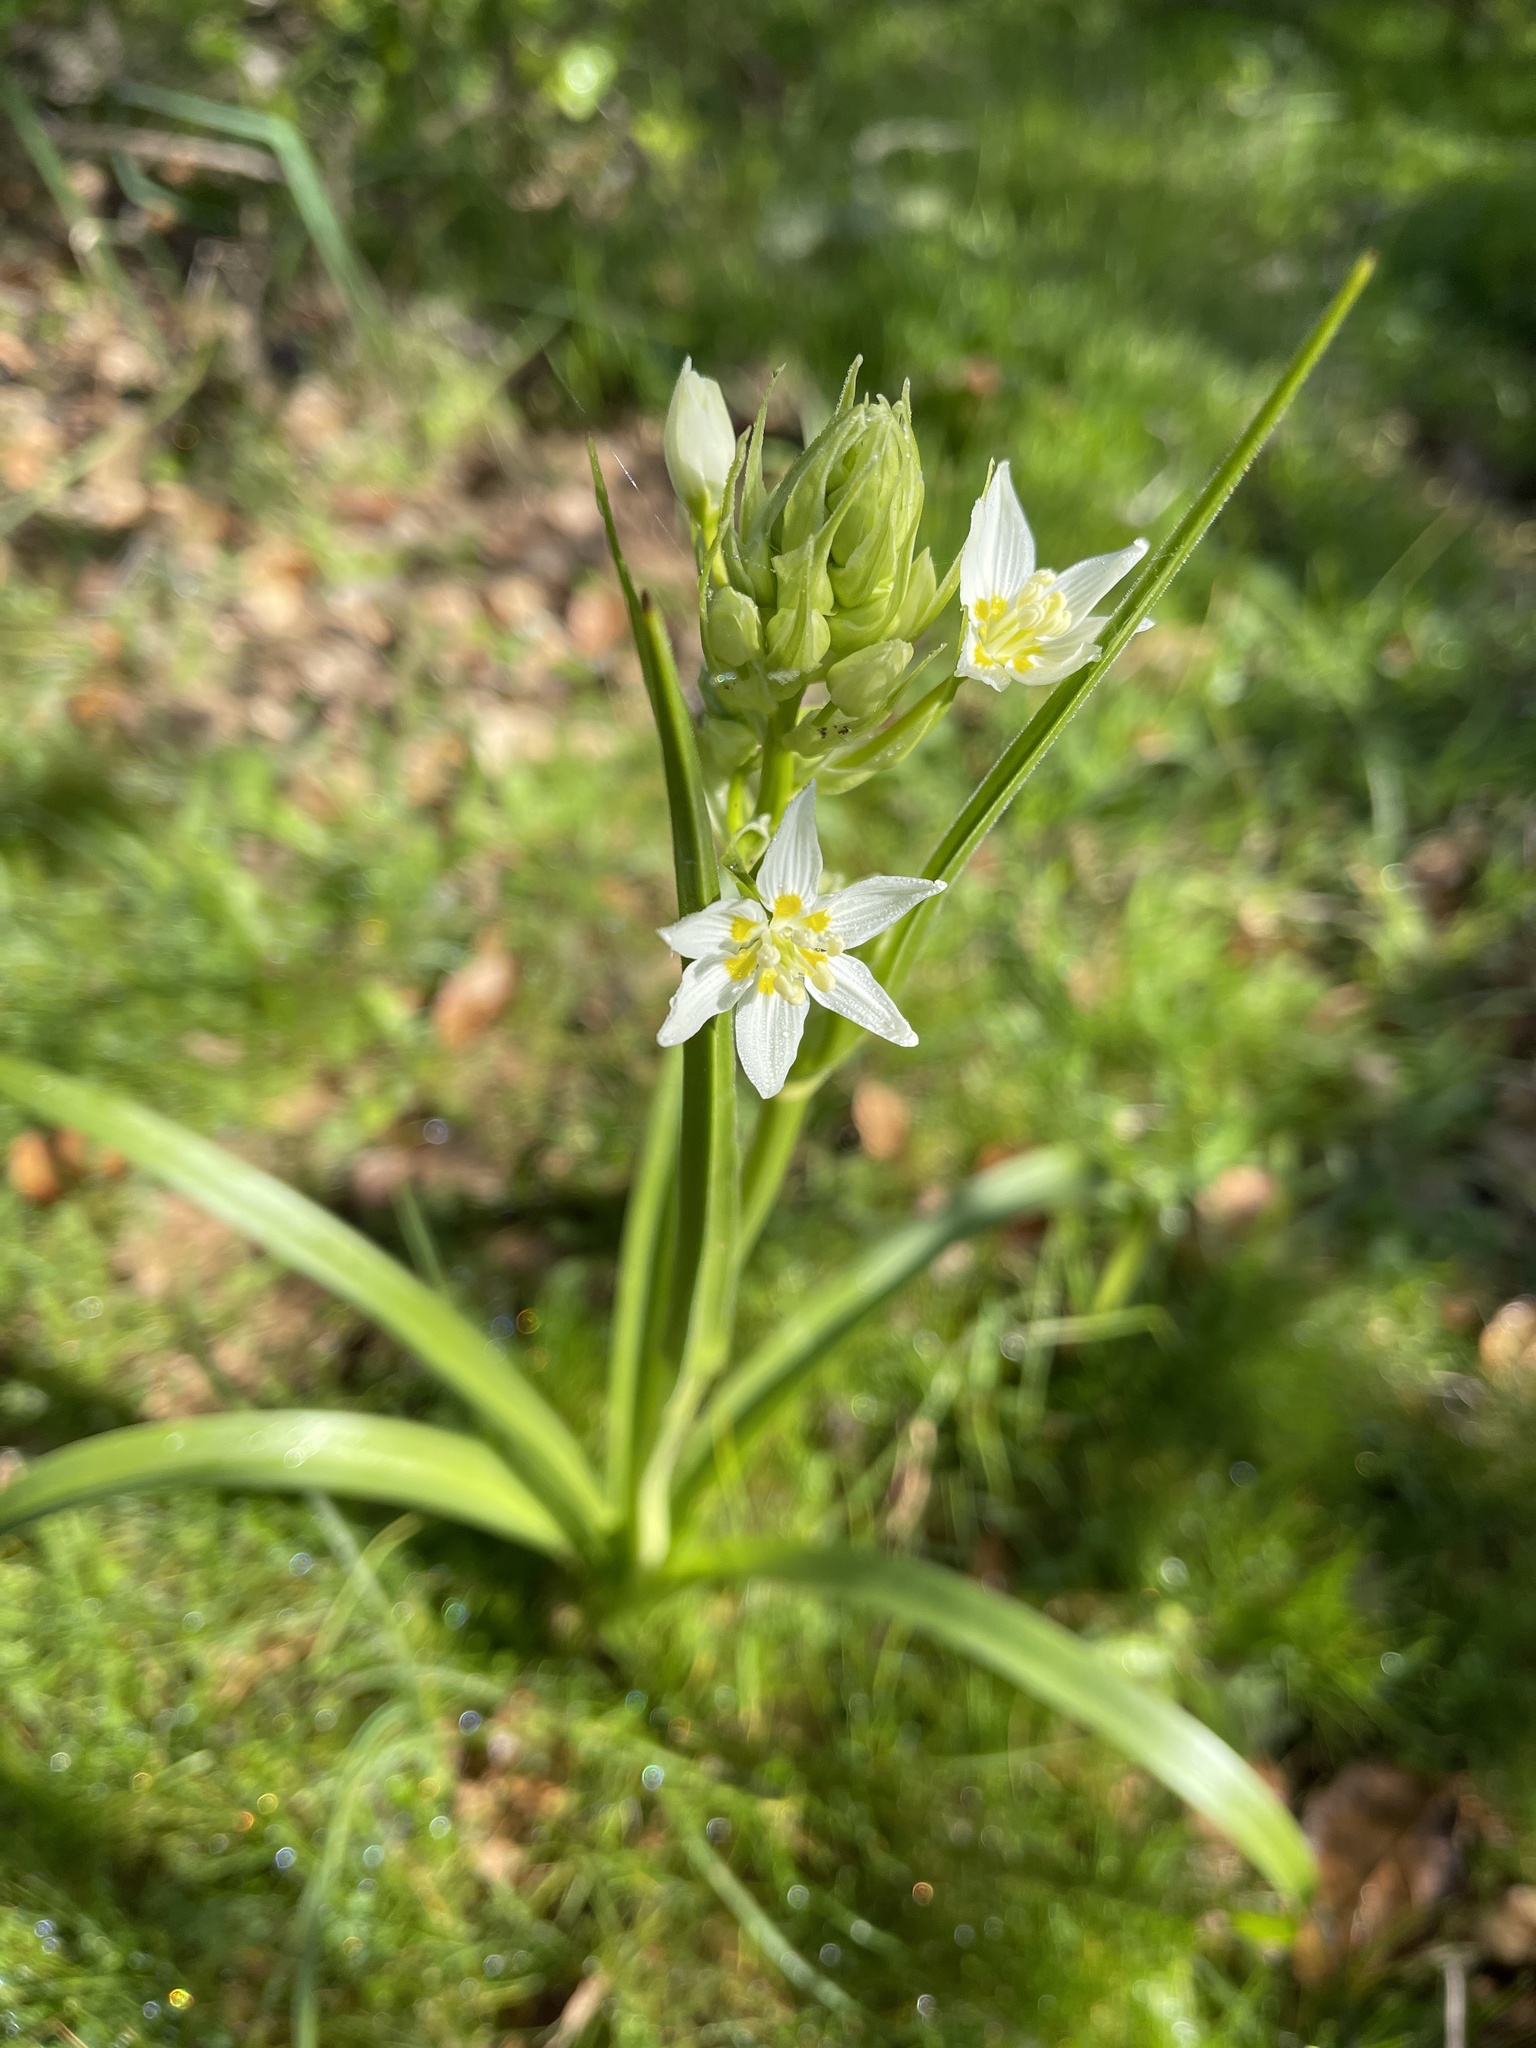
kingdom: Plantae
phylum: Tracheophyta
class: Liliopsida
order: Liliales
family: Melanthiaceae
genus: Toxicoscordion
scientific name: Toxicoscordion fremontii
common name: Fremont's death camas
